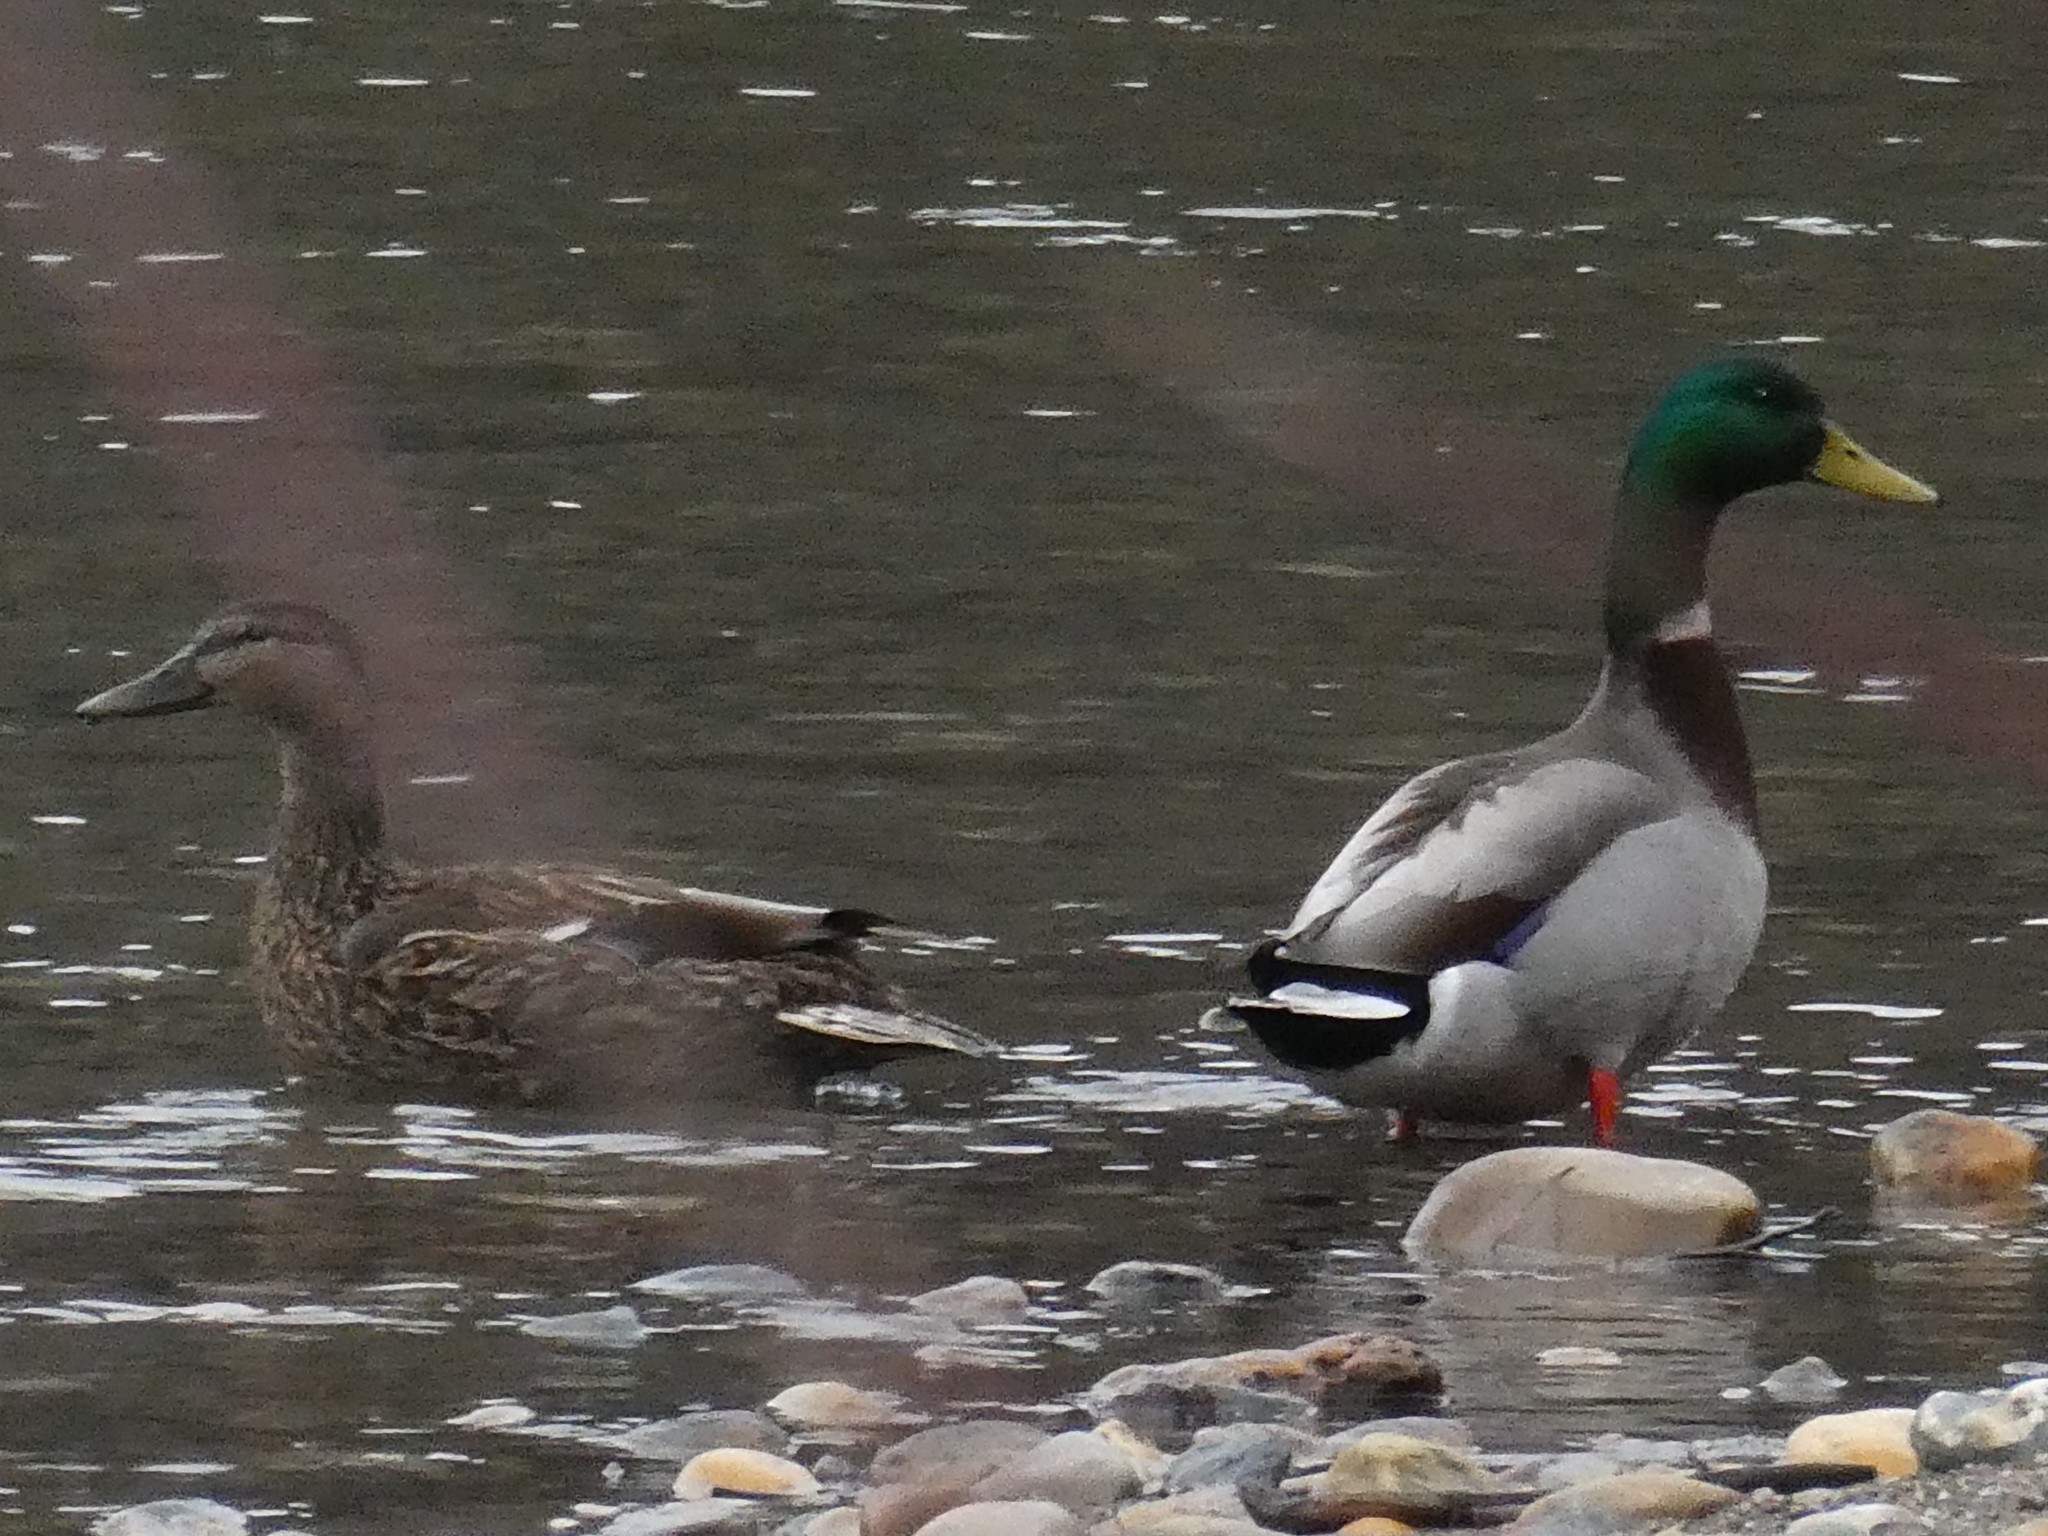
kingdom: Animalia
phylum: Chordata
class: Aves
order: Anseriformes
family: Anatidae
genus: Anas
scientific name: Anas platyrhynchos
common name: Mallard
